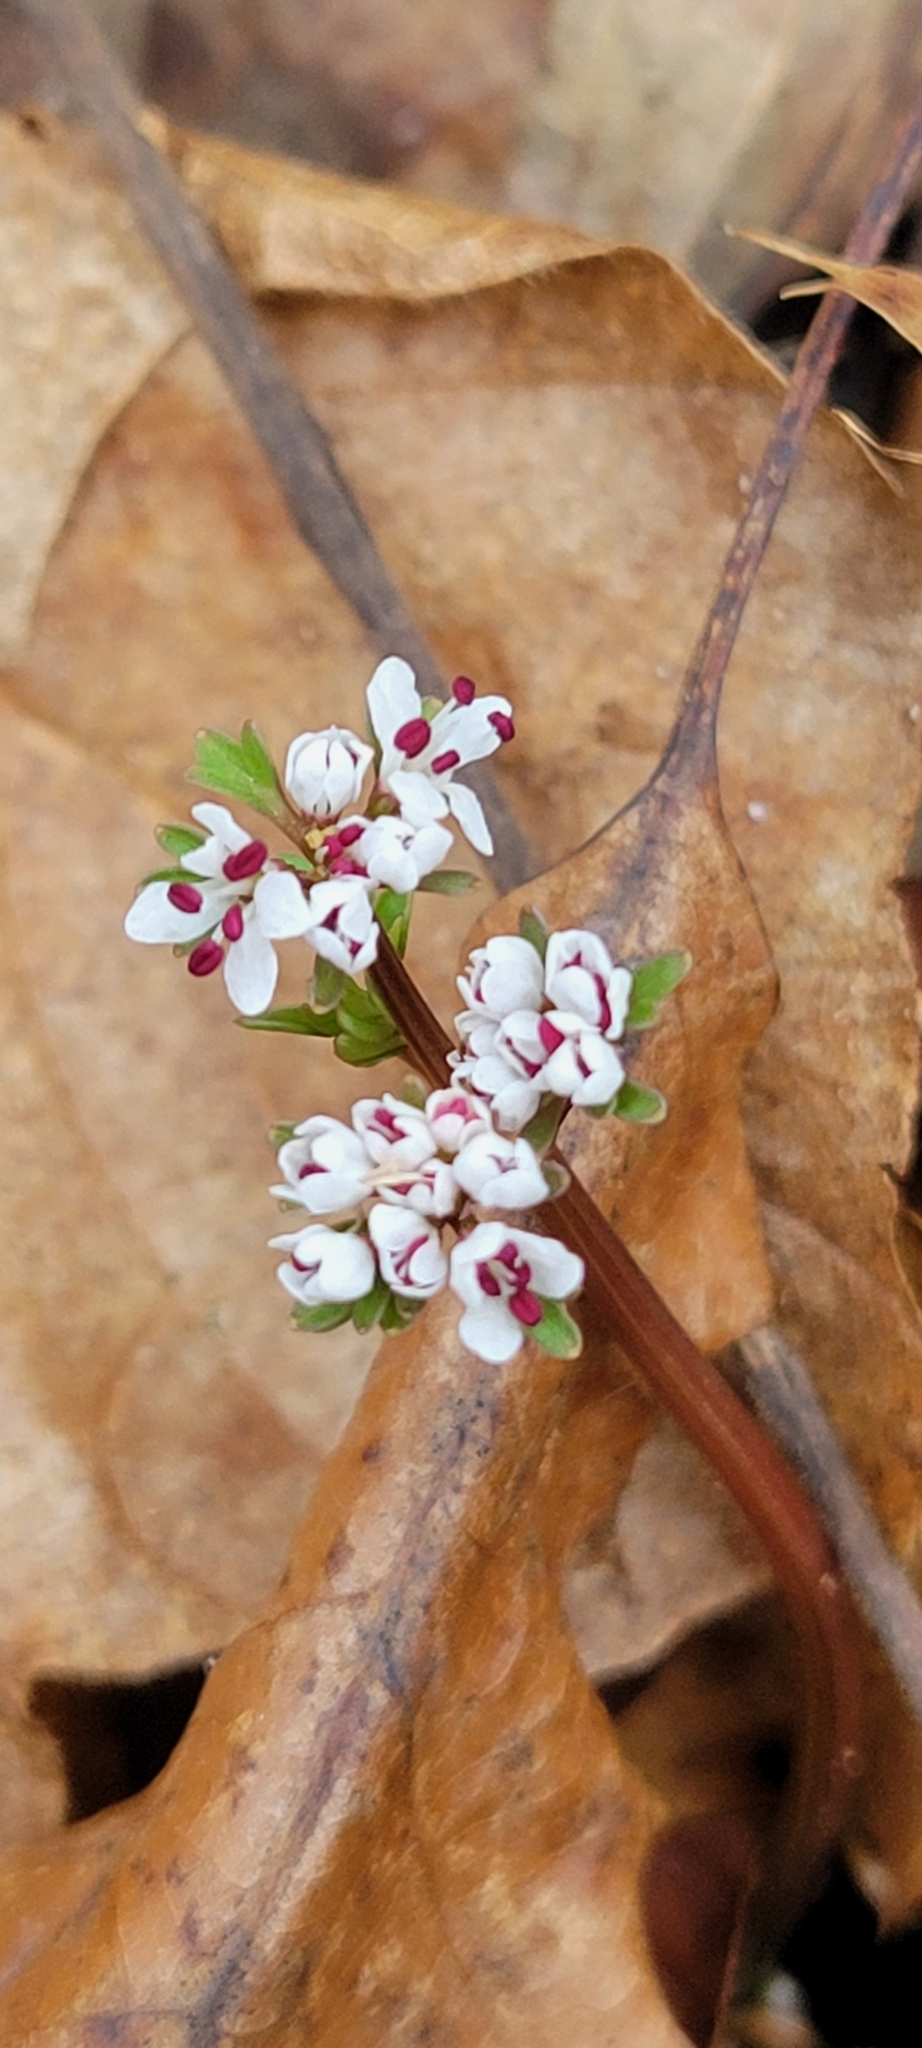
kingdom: Plantae
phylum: Tracheophyta
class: Magnoliopsida
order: Apiales
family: Apiaceae
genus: Erigenia
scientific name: Erigenia bulbosa
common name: Pepper-and-salt
